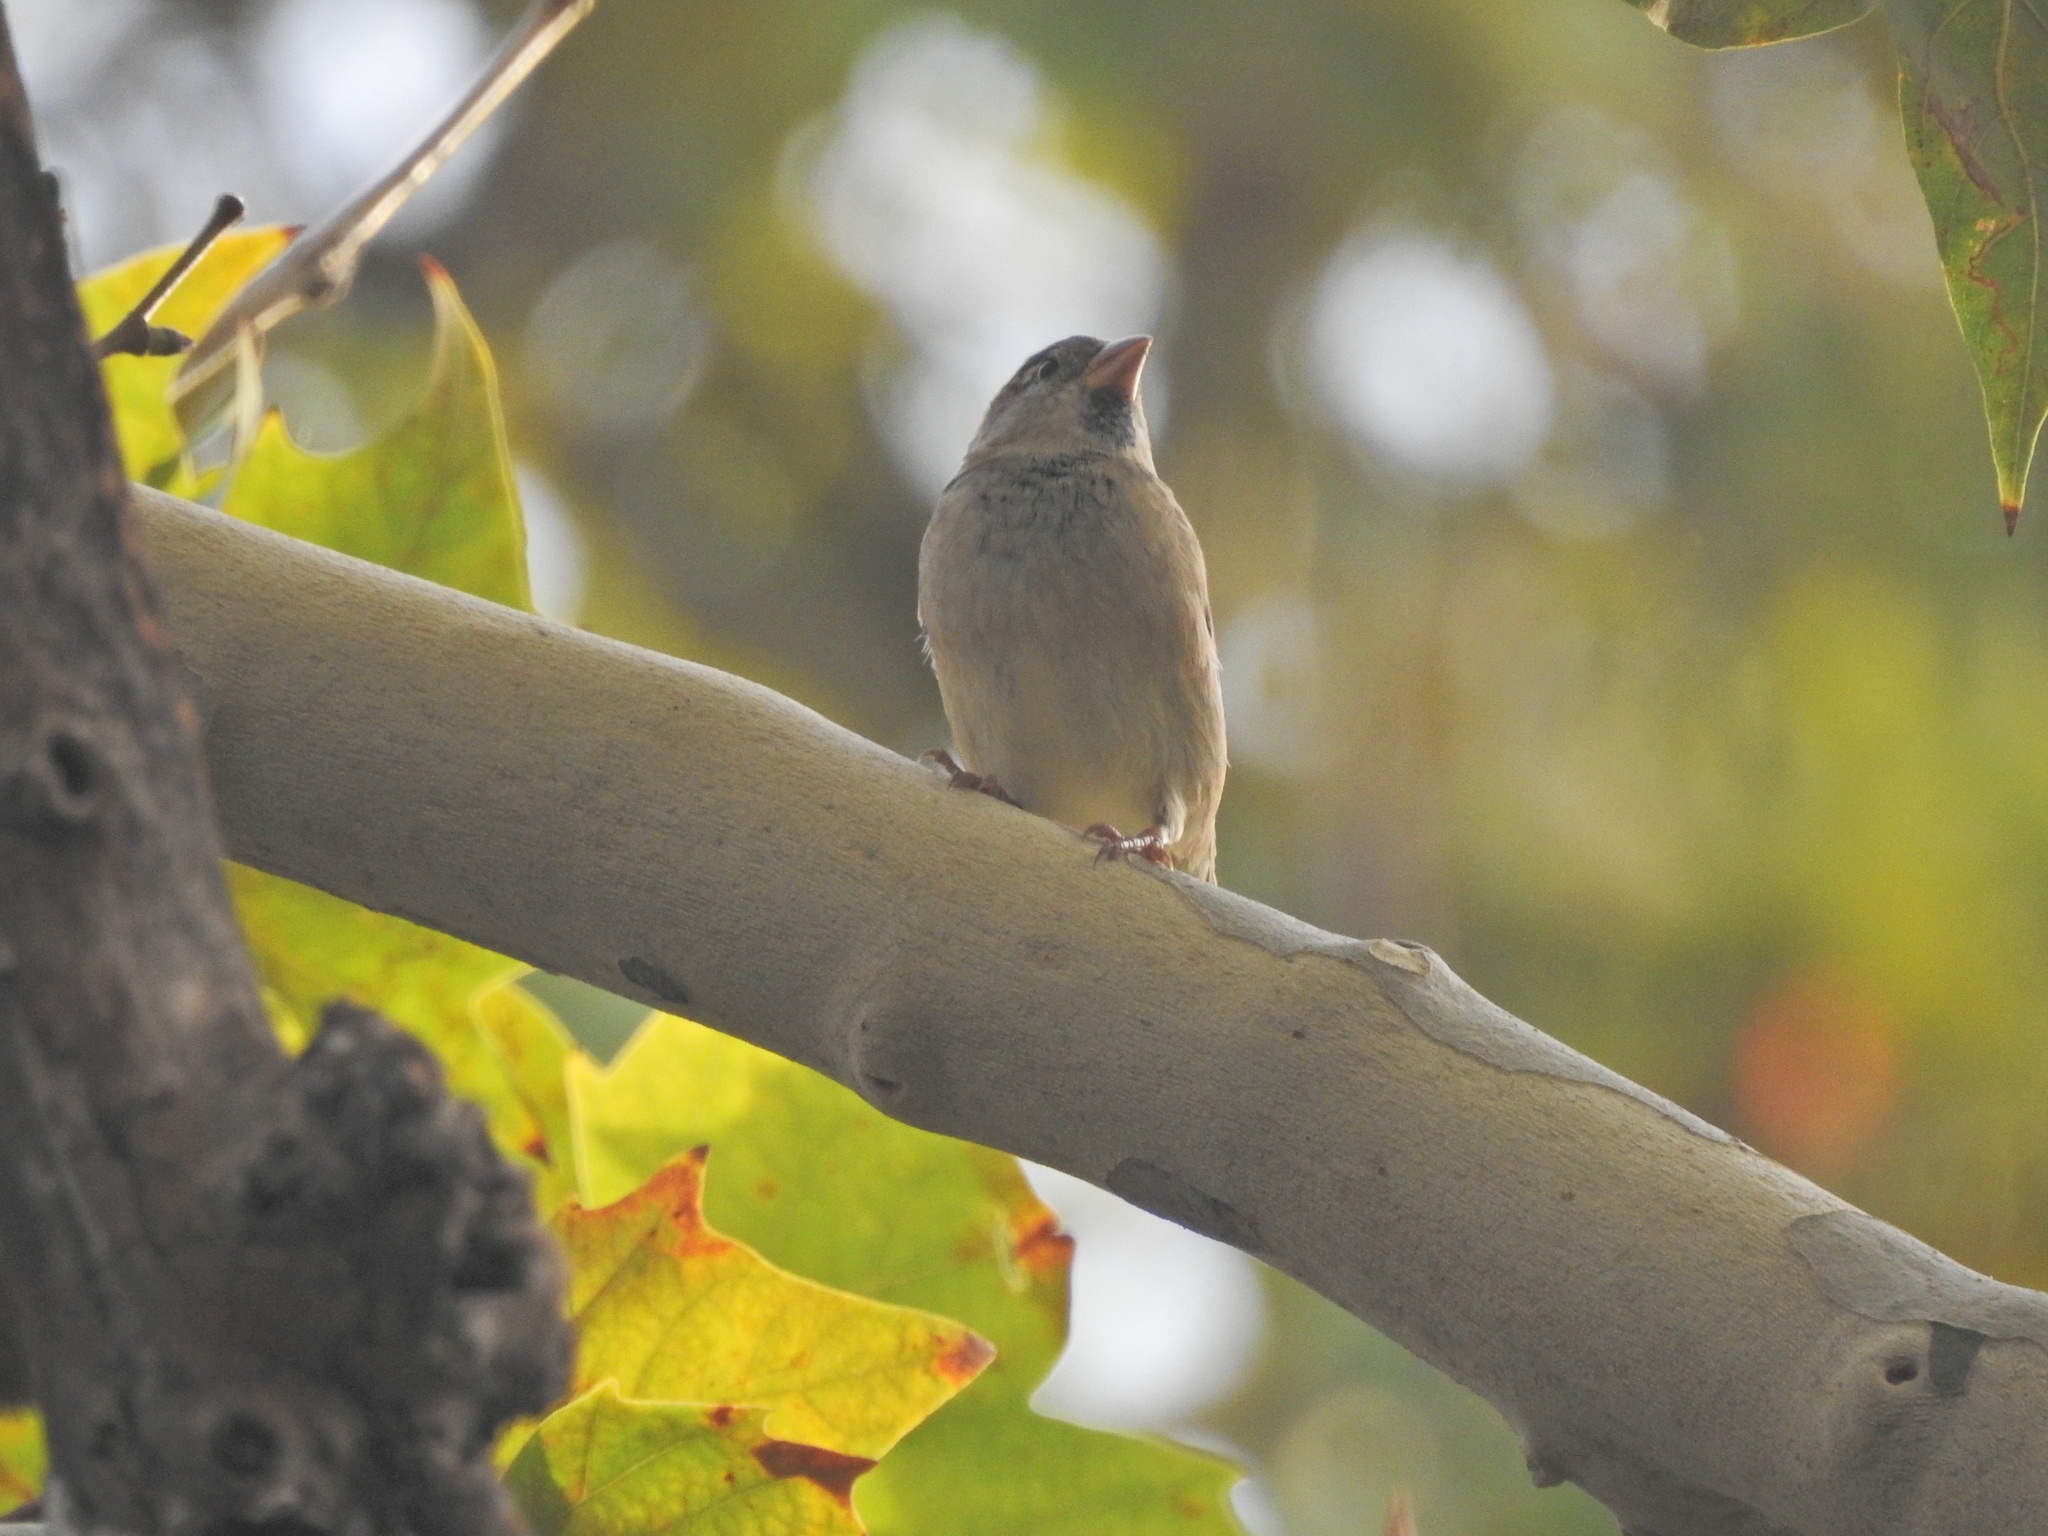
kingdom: Animalia
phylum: Chordata
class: Aves
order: Passeriformes
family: Passeridae
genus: Passer
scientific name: Passer domesticus
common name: House sparrow
